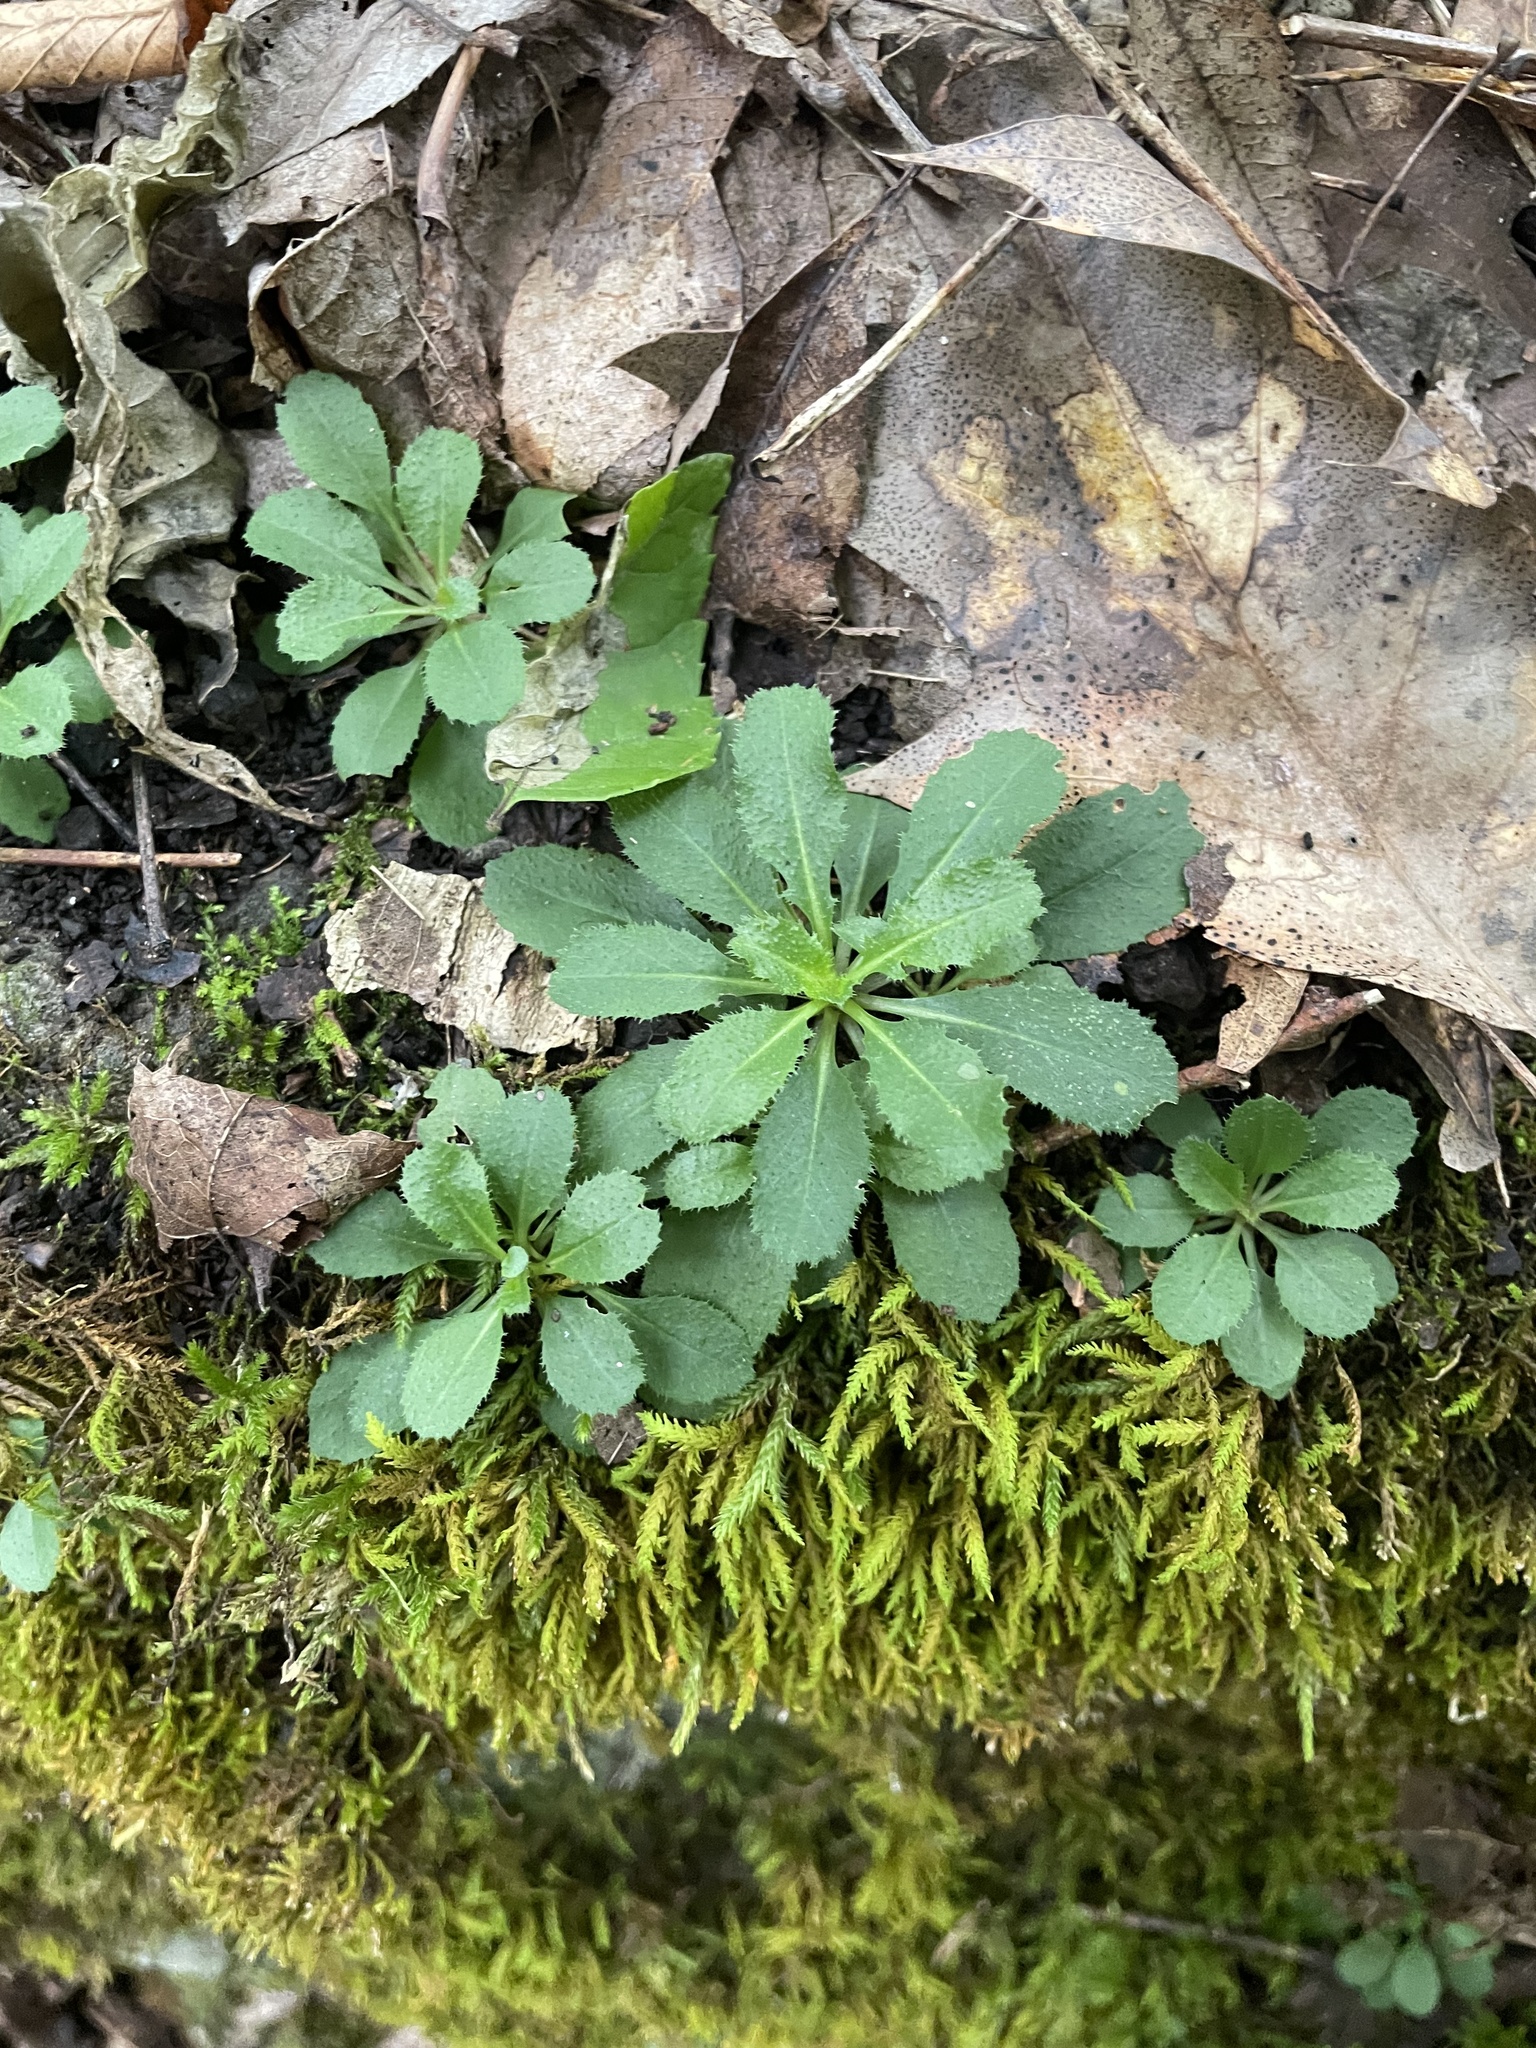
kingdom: Plantae
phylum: Tracheophyta
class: Magnoliopsida
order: Brassicales
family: Brassicaceae
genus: Borodinia
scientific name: Borodinia laevigata
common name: Smooth rockcress
